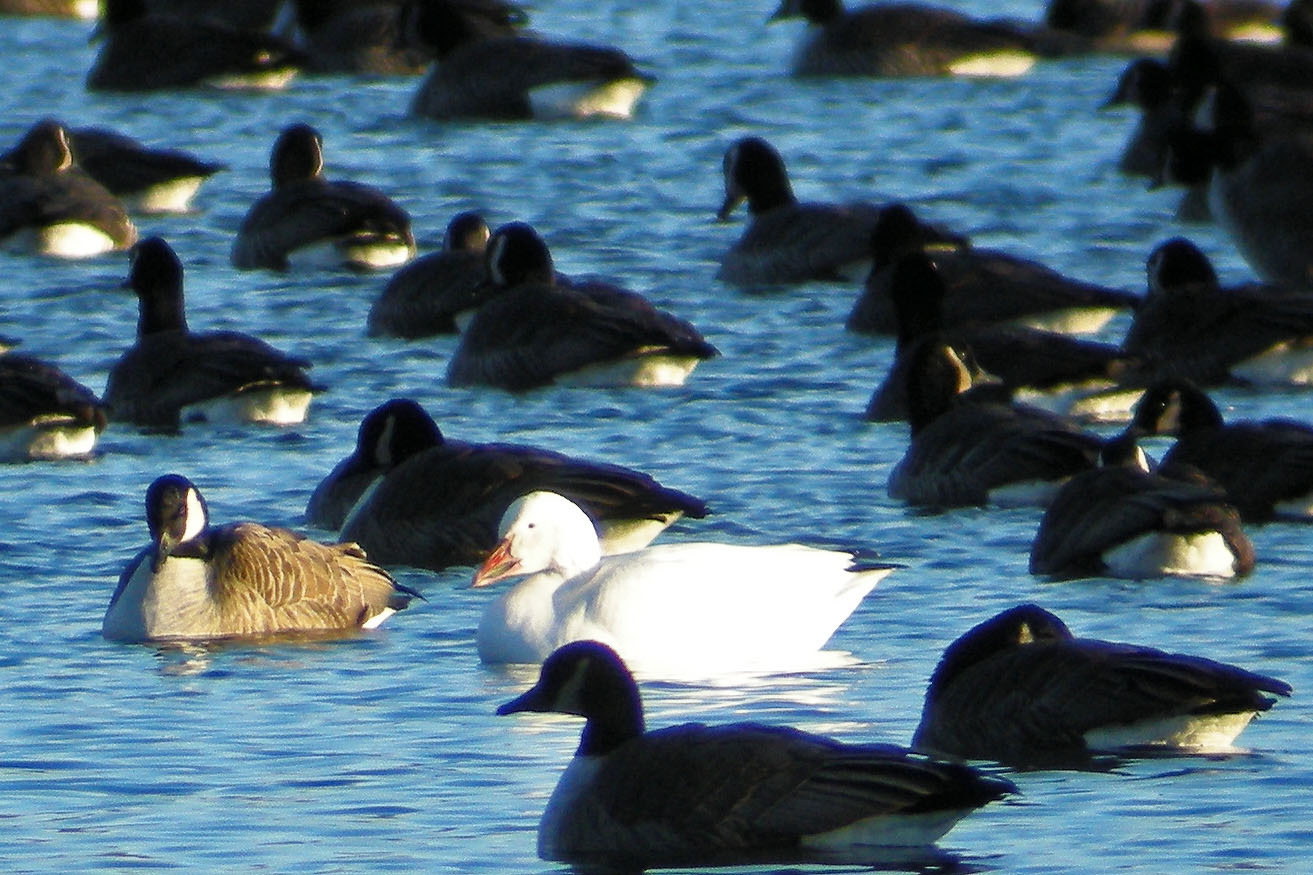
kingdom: Animalia
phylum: Chordata
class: Aves
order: Anseriformes
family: Anatidae
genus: Anser
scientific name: Anser caerulescens
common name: Snow goose
